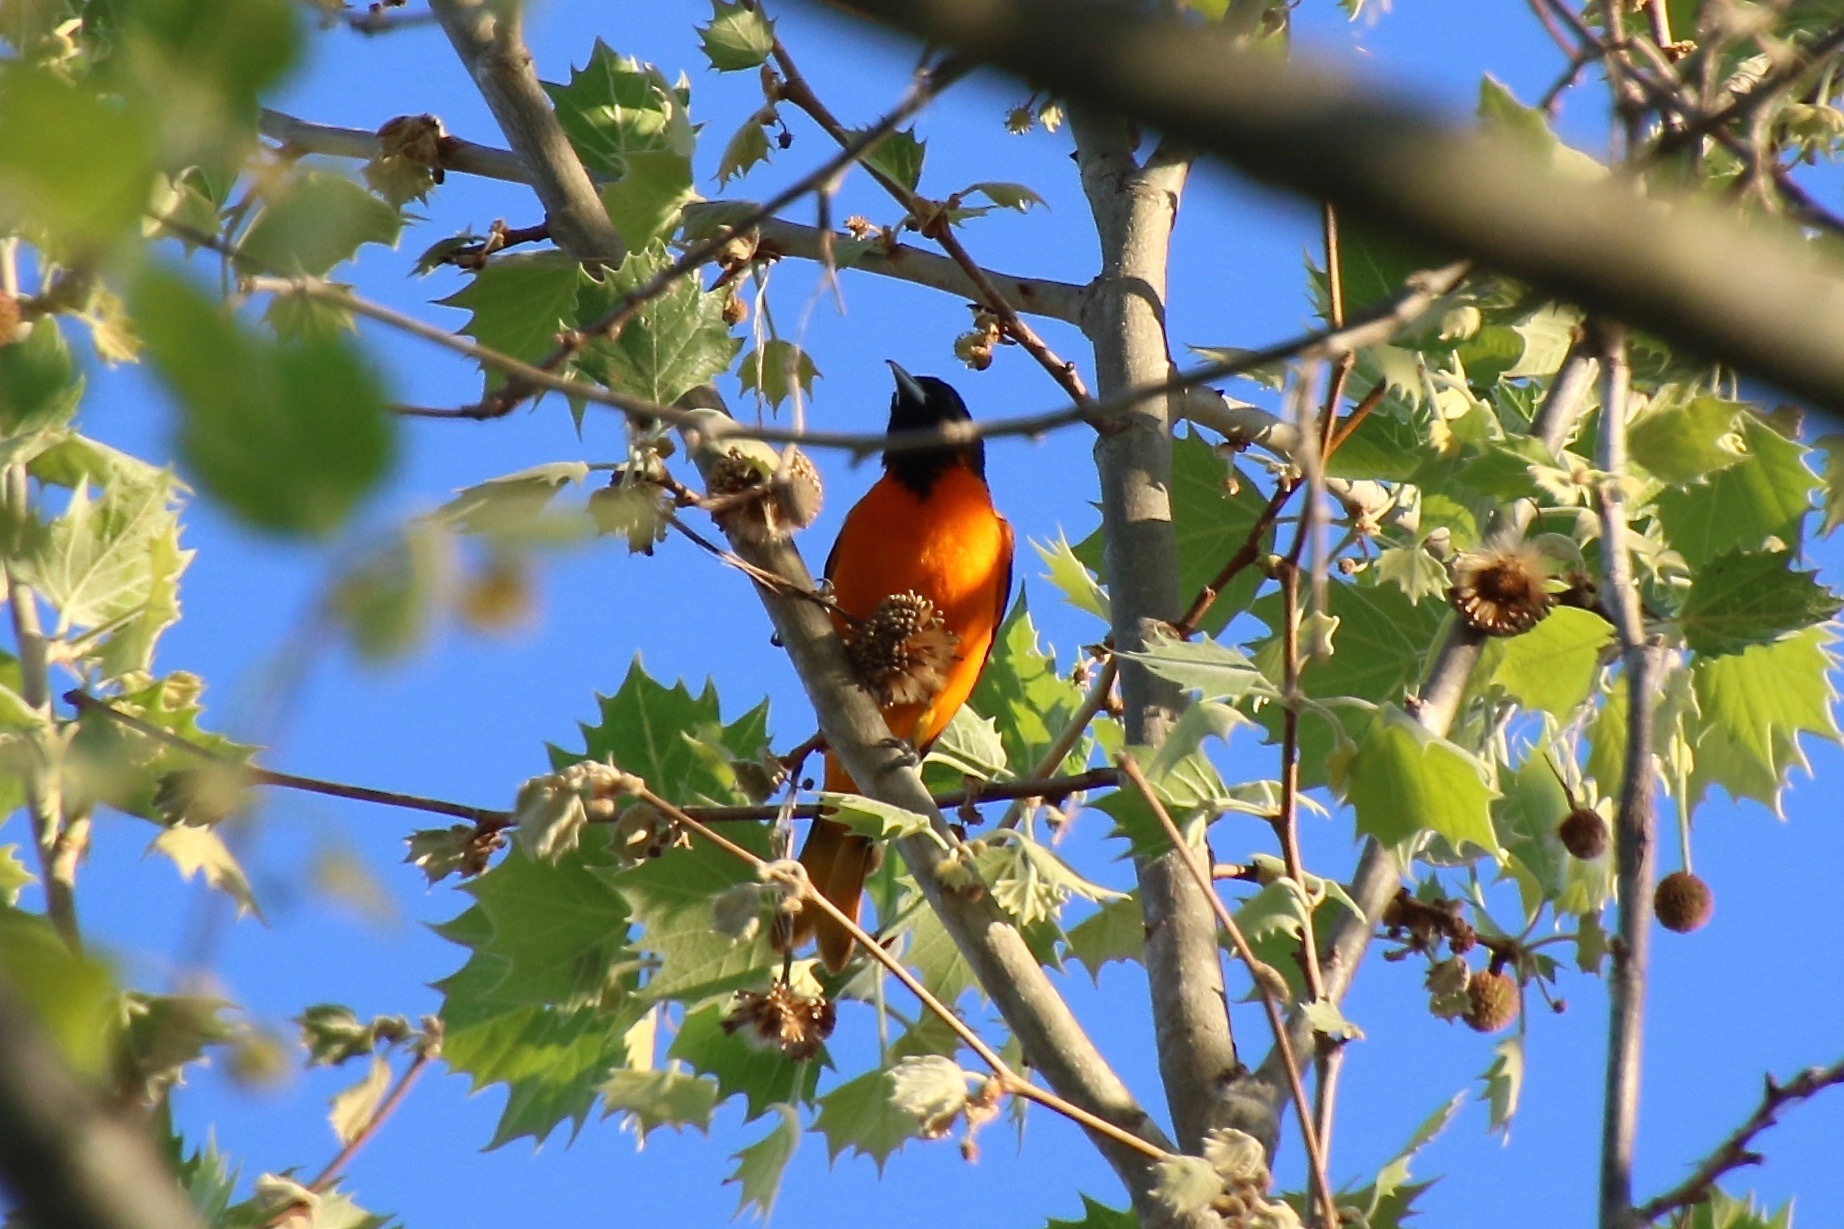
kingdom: Animalia
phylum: Chordata
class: Aves
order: Passeriformes
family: Icteridae
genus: Icterus
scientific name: Icterus galbula
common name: Baltimore oriole
